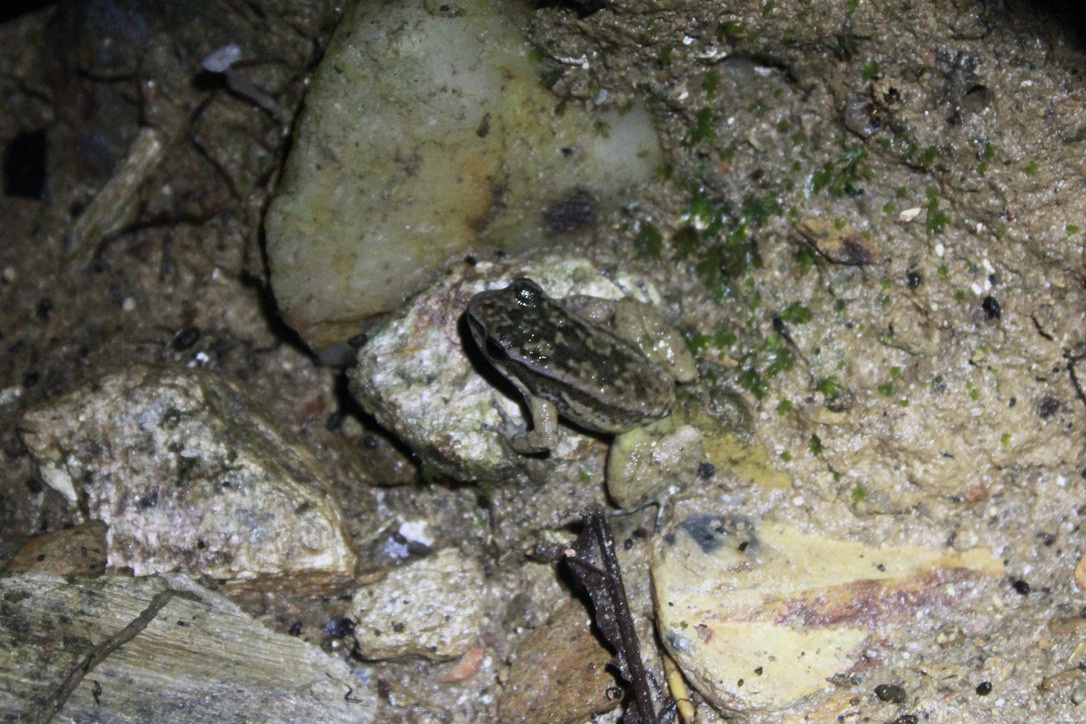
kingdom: Animalia
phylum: Chordata
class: Amphibia
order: Anura
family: Aromobatidae
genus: Mannophryne
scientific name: Mannophryne trinitatis
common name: Trinidad poison frog
